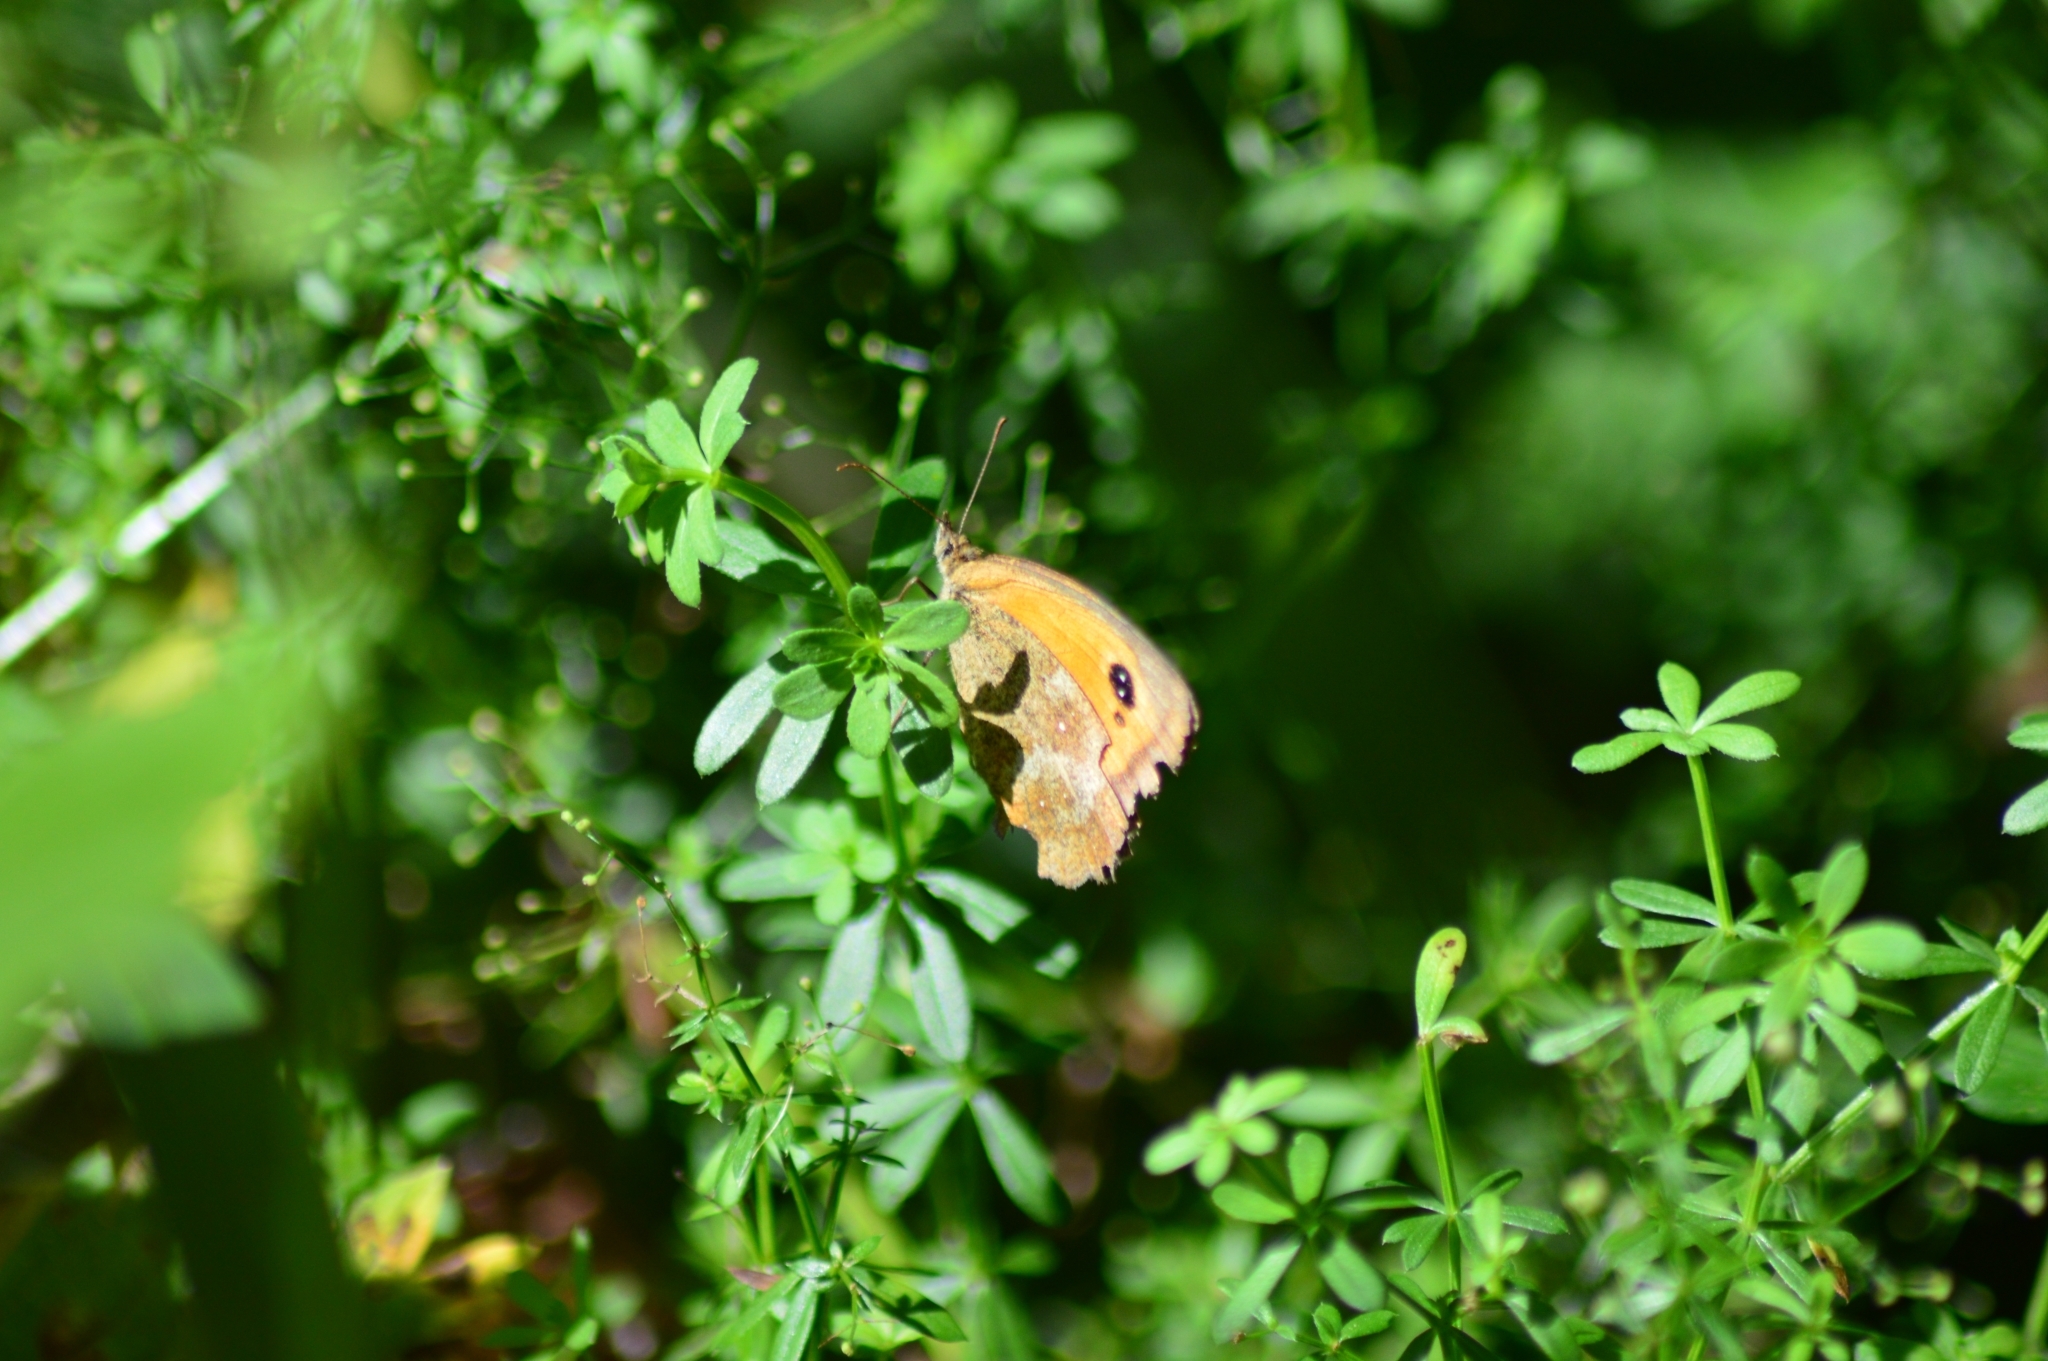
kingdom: Animalia
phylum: Arthropoda
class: Insecta
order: Lepidoptera
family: Nymphalidae
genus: Pyronia
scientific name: Pyronia tithonus
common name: Gatekeeper
